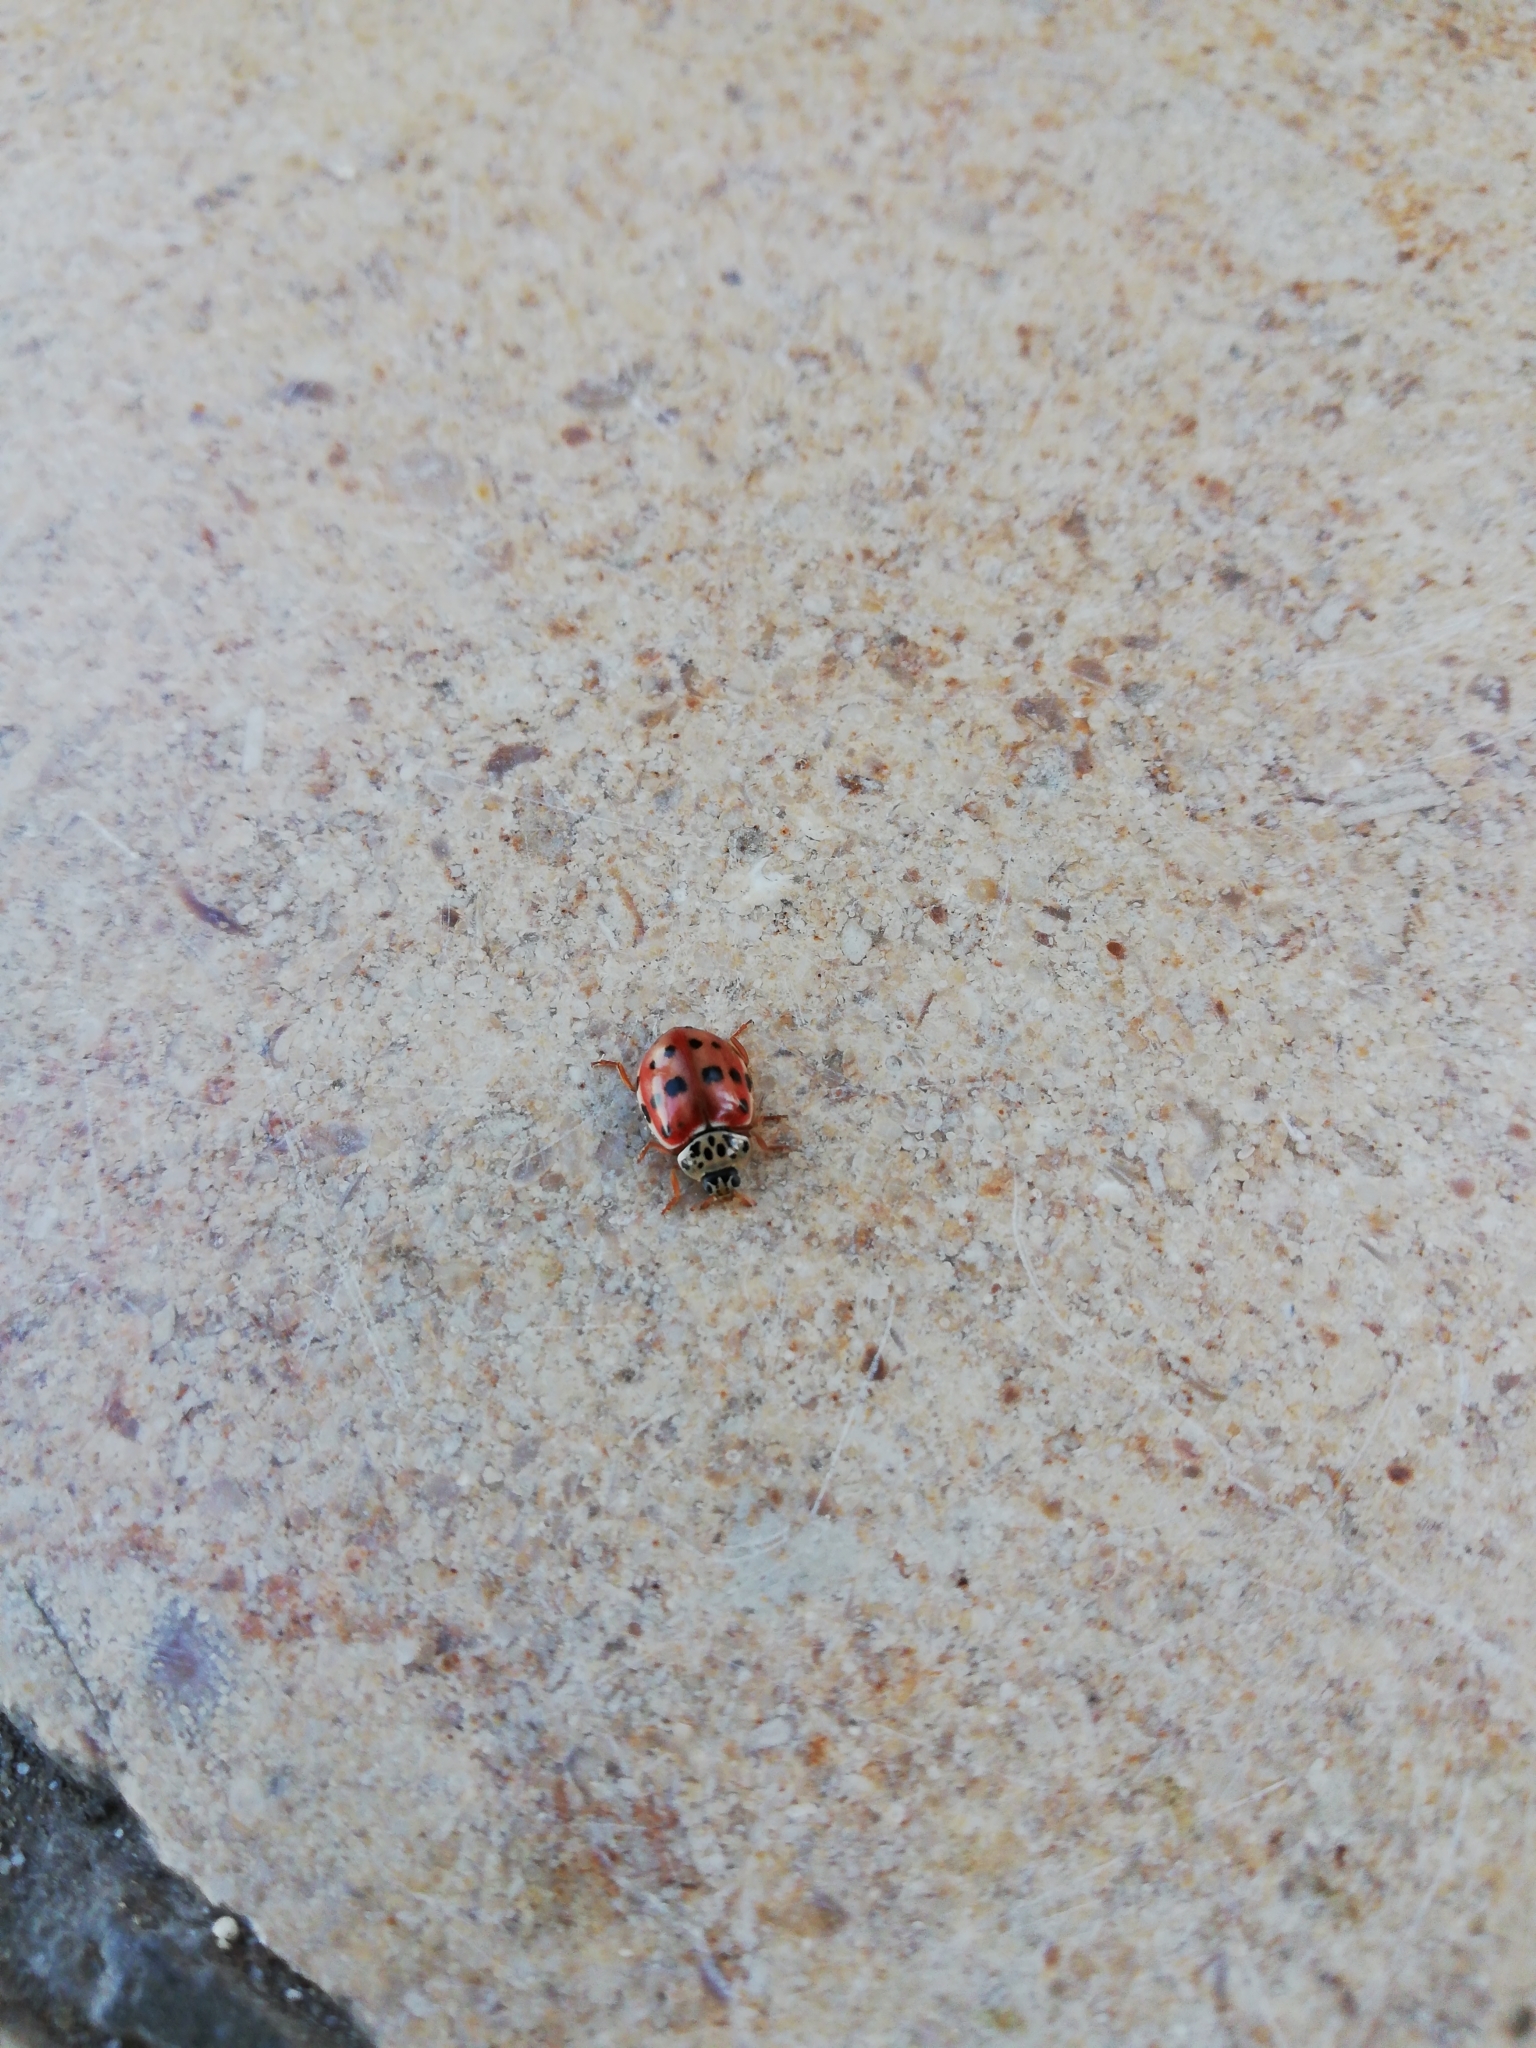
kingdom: Animalia
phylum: Arthropoda
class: Insecta
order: Coleoptera
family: Coccinellidae
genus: Harmonia
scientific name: Harmonia quadripunctata
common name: Cream-streaked ladybird
